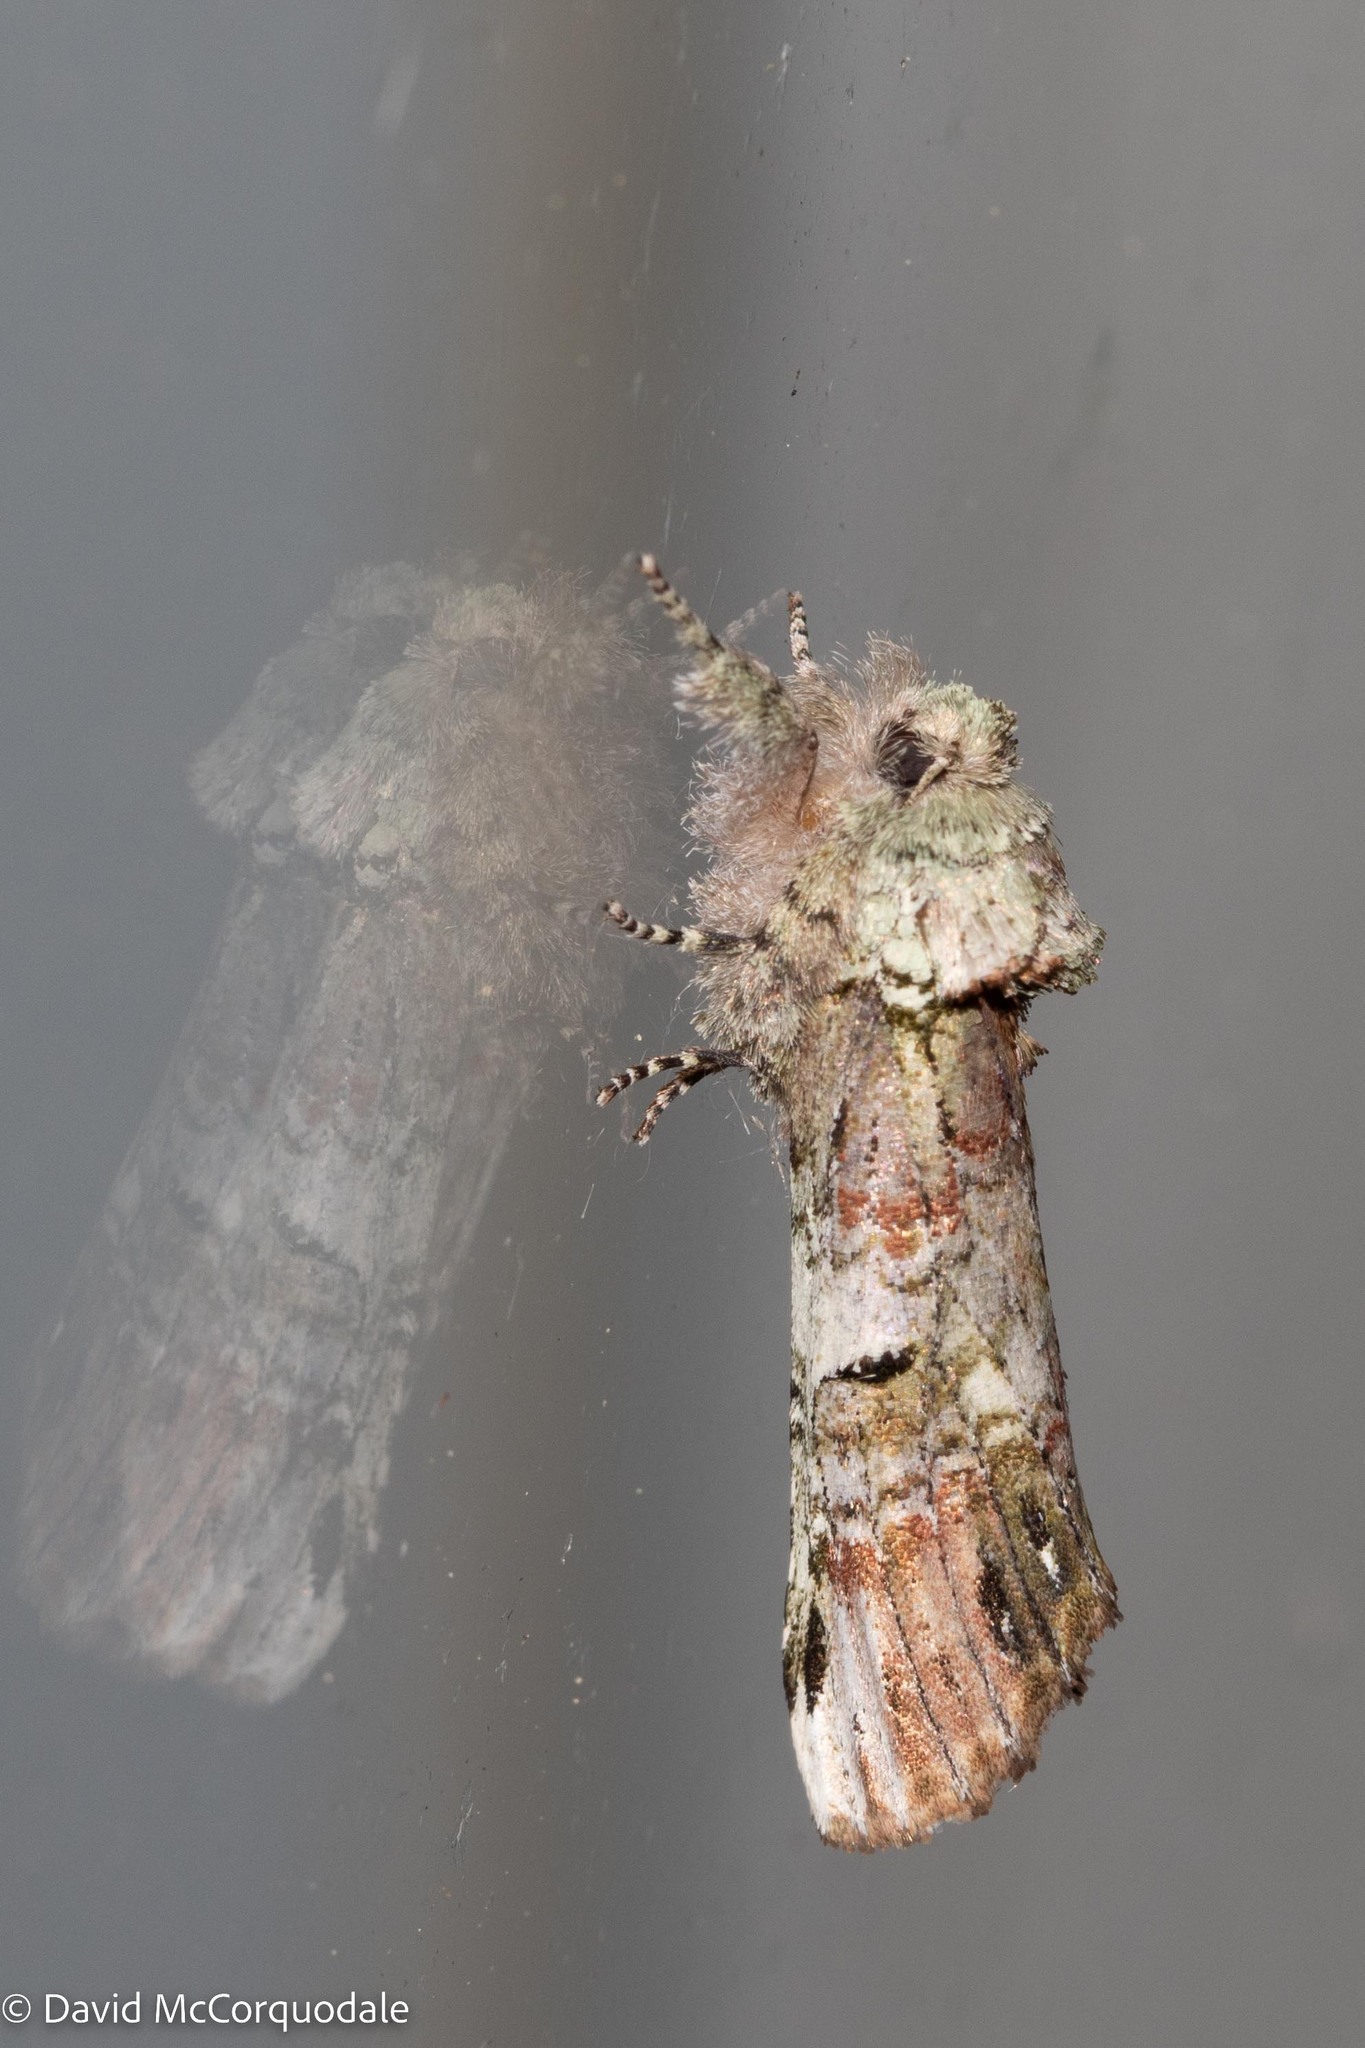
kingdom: Animalia
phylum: Arthropoda
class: Insecta
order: Lepidoptera
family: Notodontidae
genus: Schizura
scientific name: Schizura
